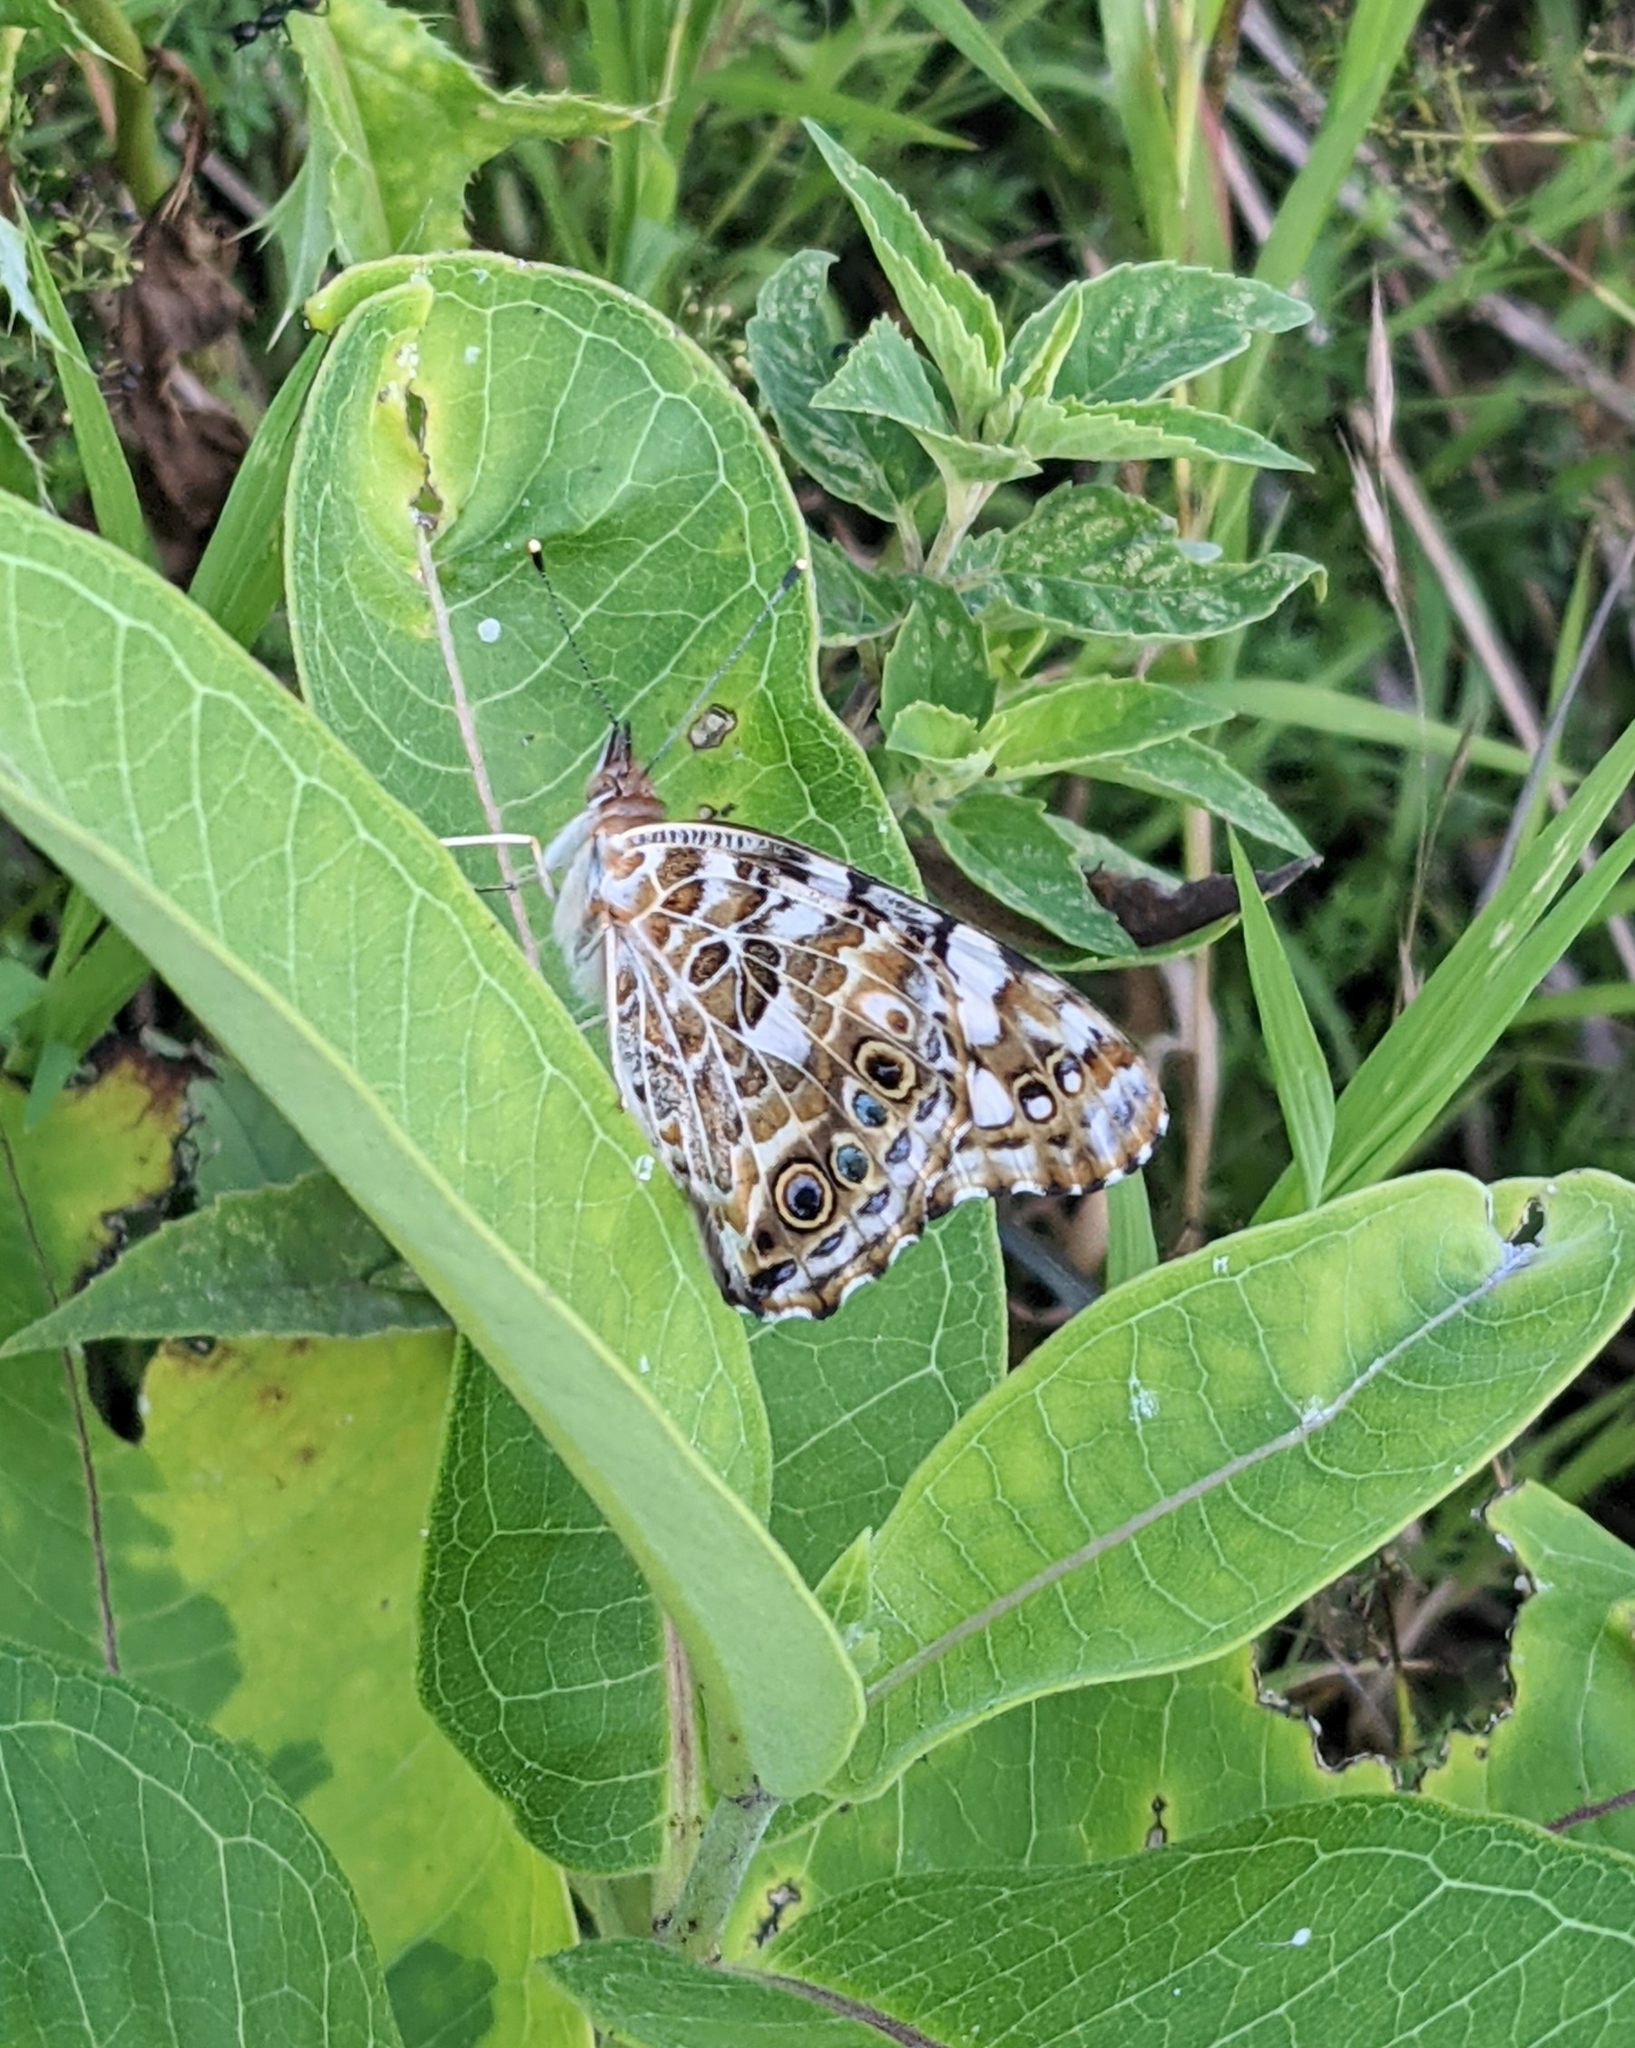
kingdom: Animalia
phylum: Arthropoda
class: Insecta
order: Lepidoptera
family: Nymphalidae
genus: Vanessa
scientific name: Vanessa cardui
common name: Painted lady
